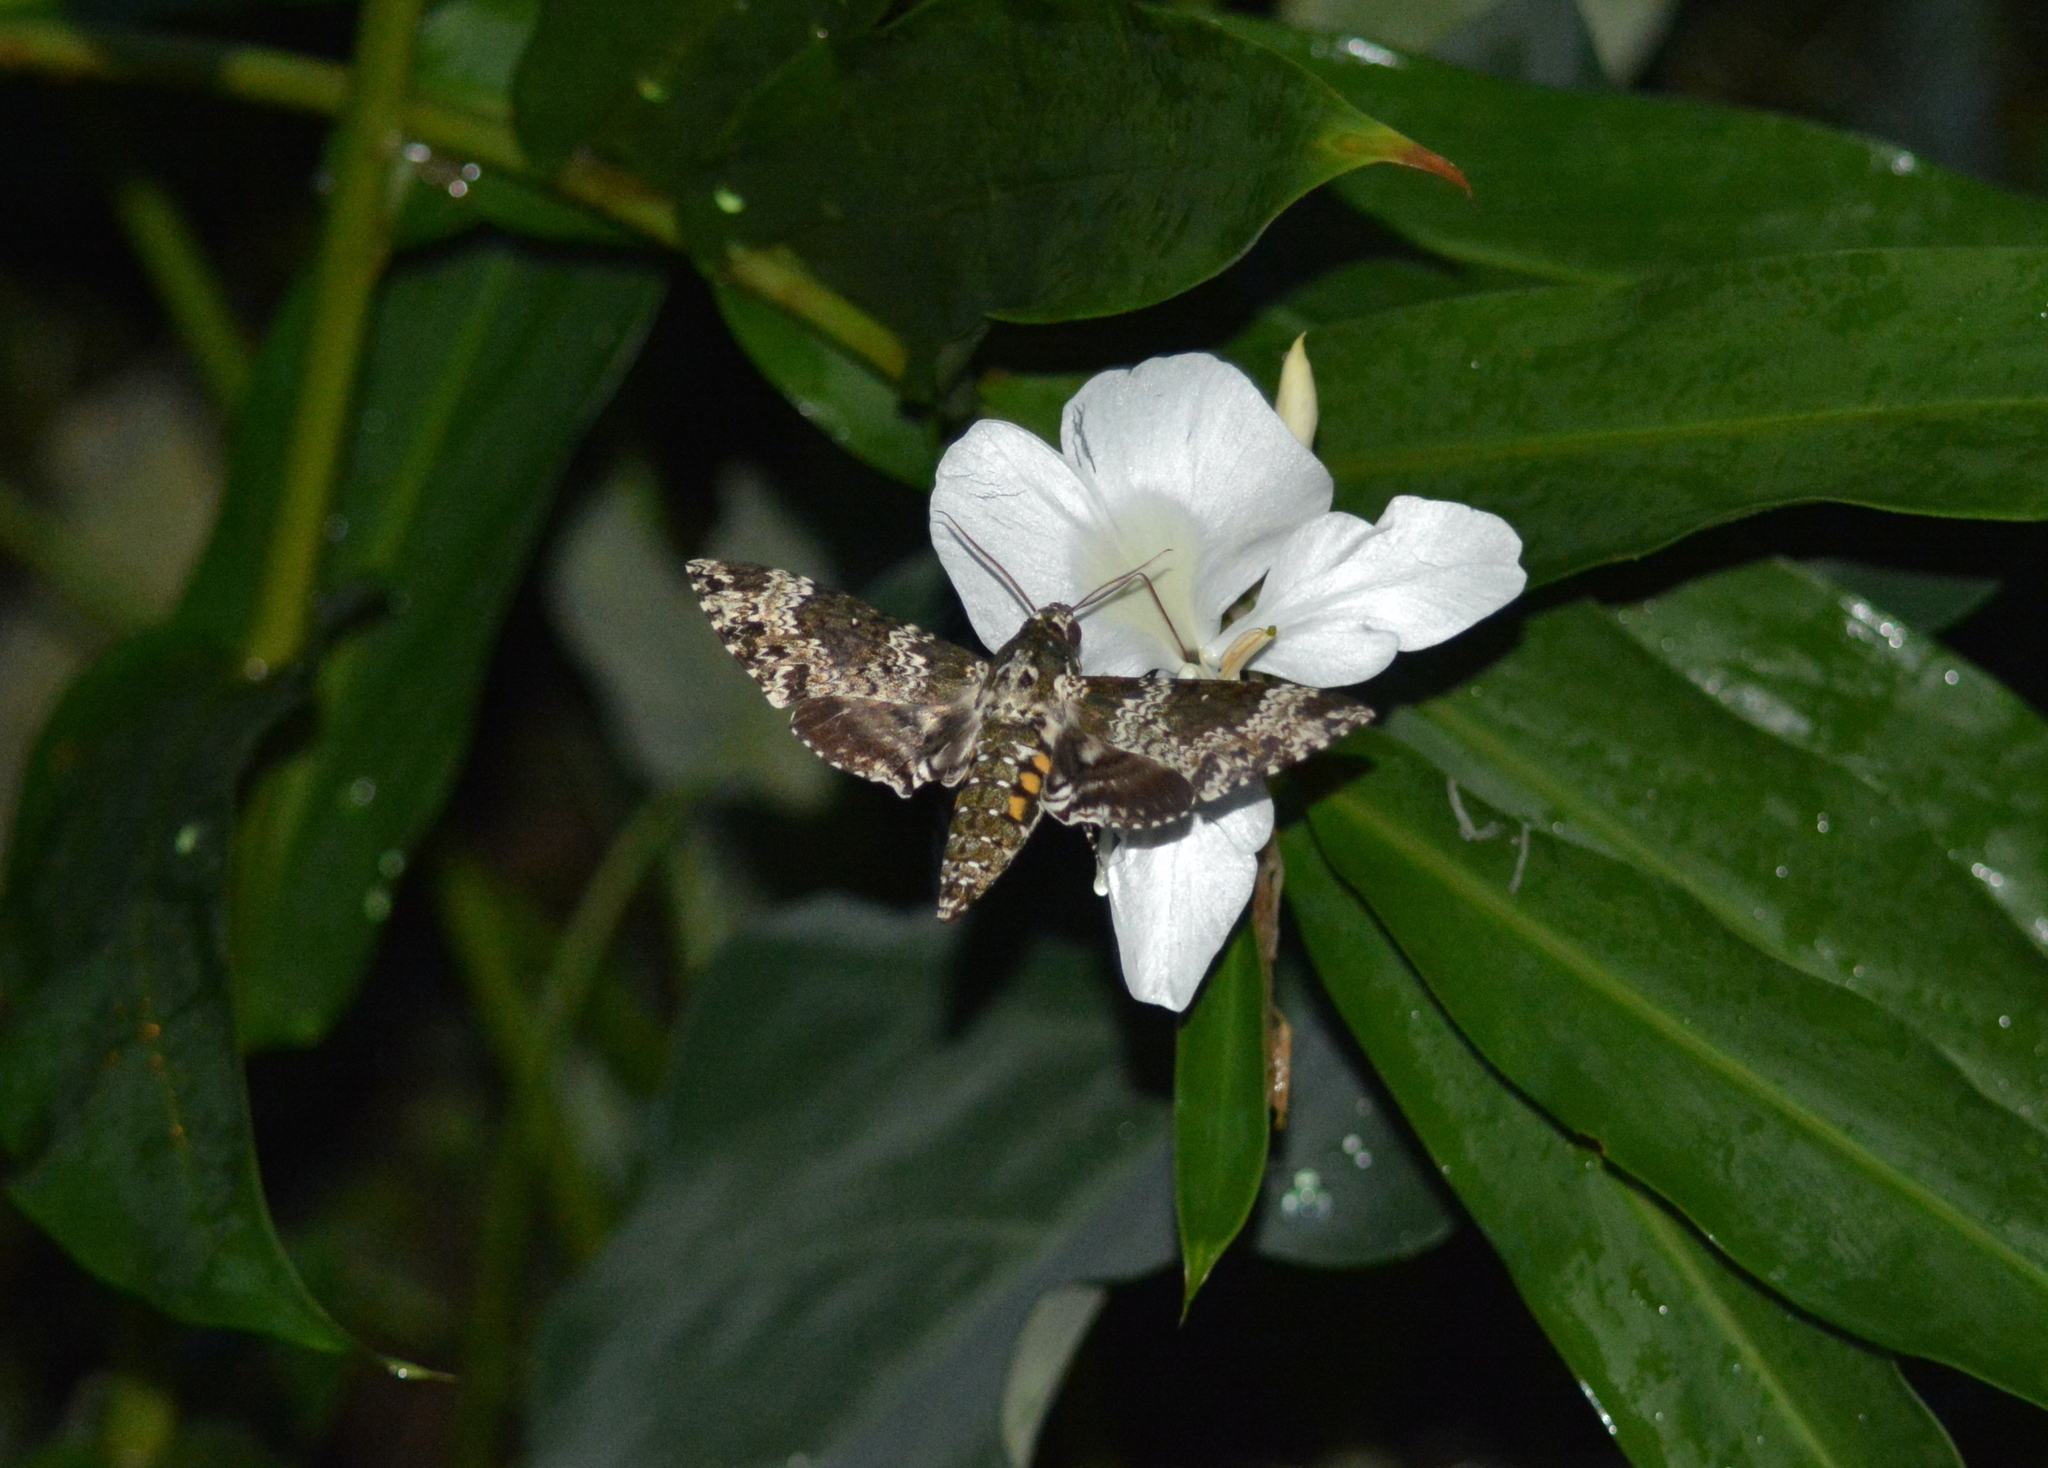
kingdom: Animalia
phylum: Arthropoda
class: Insecta
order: Lepidoptera
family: Sphingidae
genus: Manduca
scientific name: Manduca rustica
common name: Rustic sphinx
